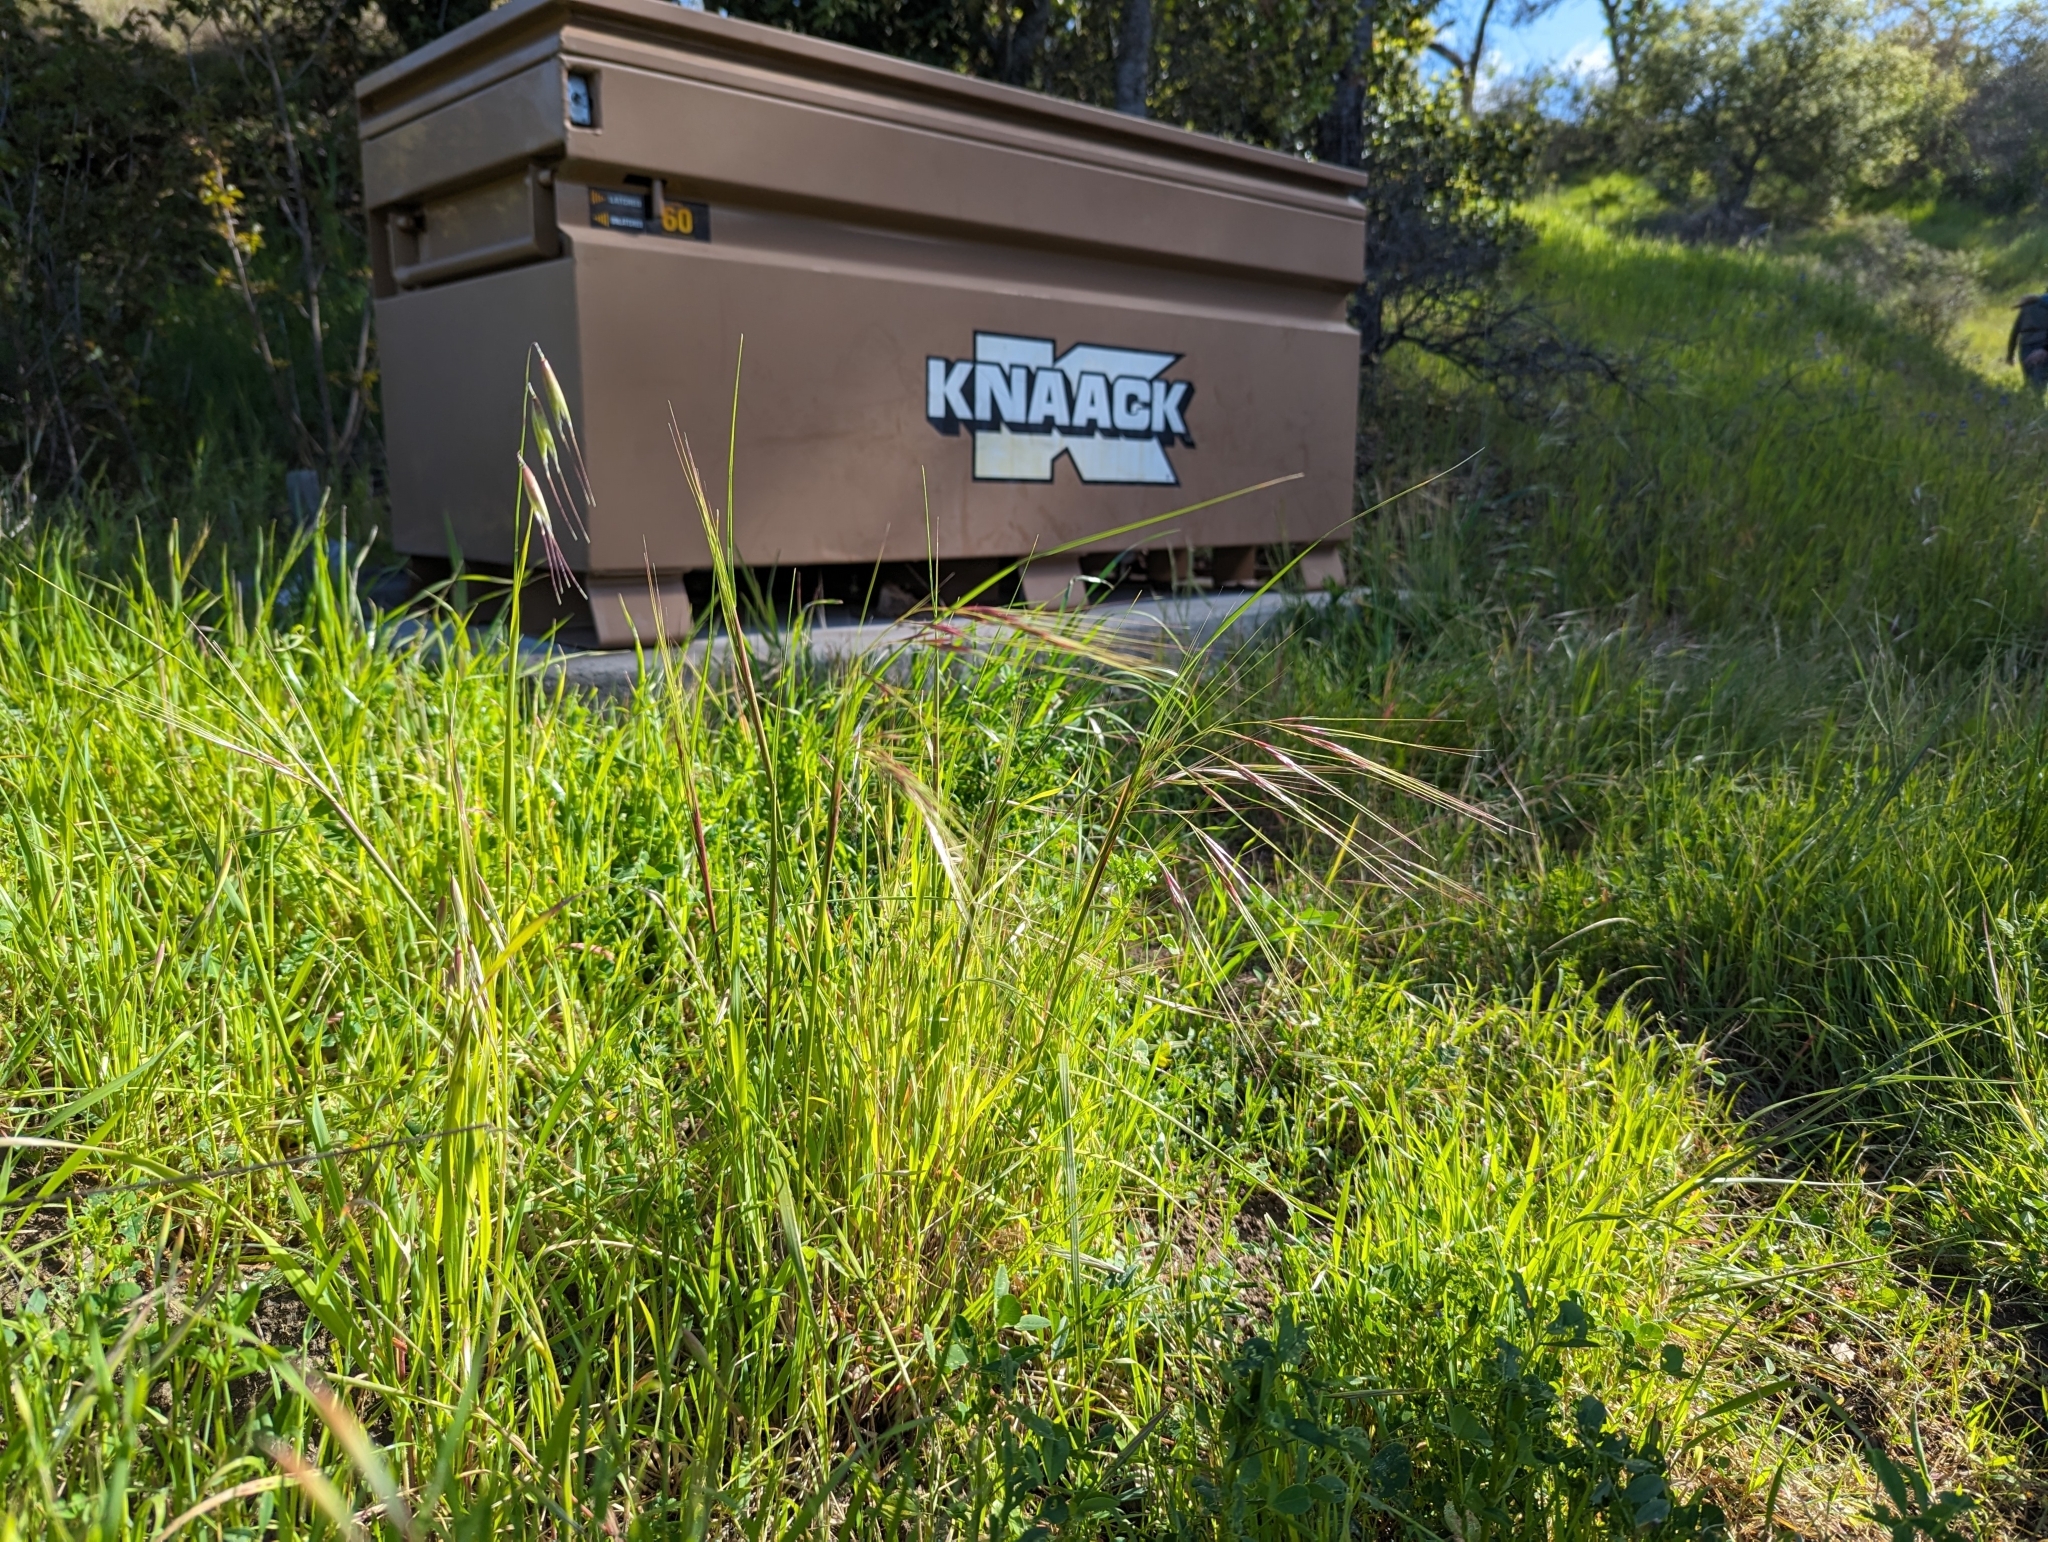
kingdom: Plantae
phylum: Tracheophyta
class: Liliopsida
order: Poales
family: Poaceae
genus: Nassella
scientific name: Nassella pulchra
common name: Purple needlegrass
